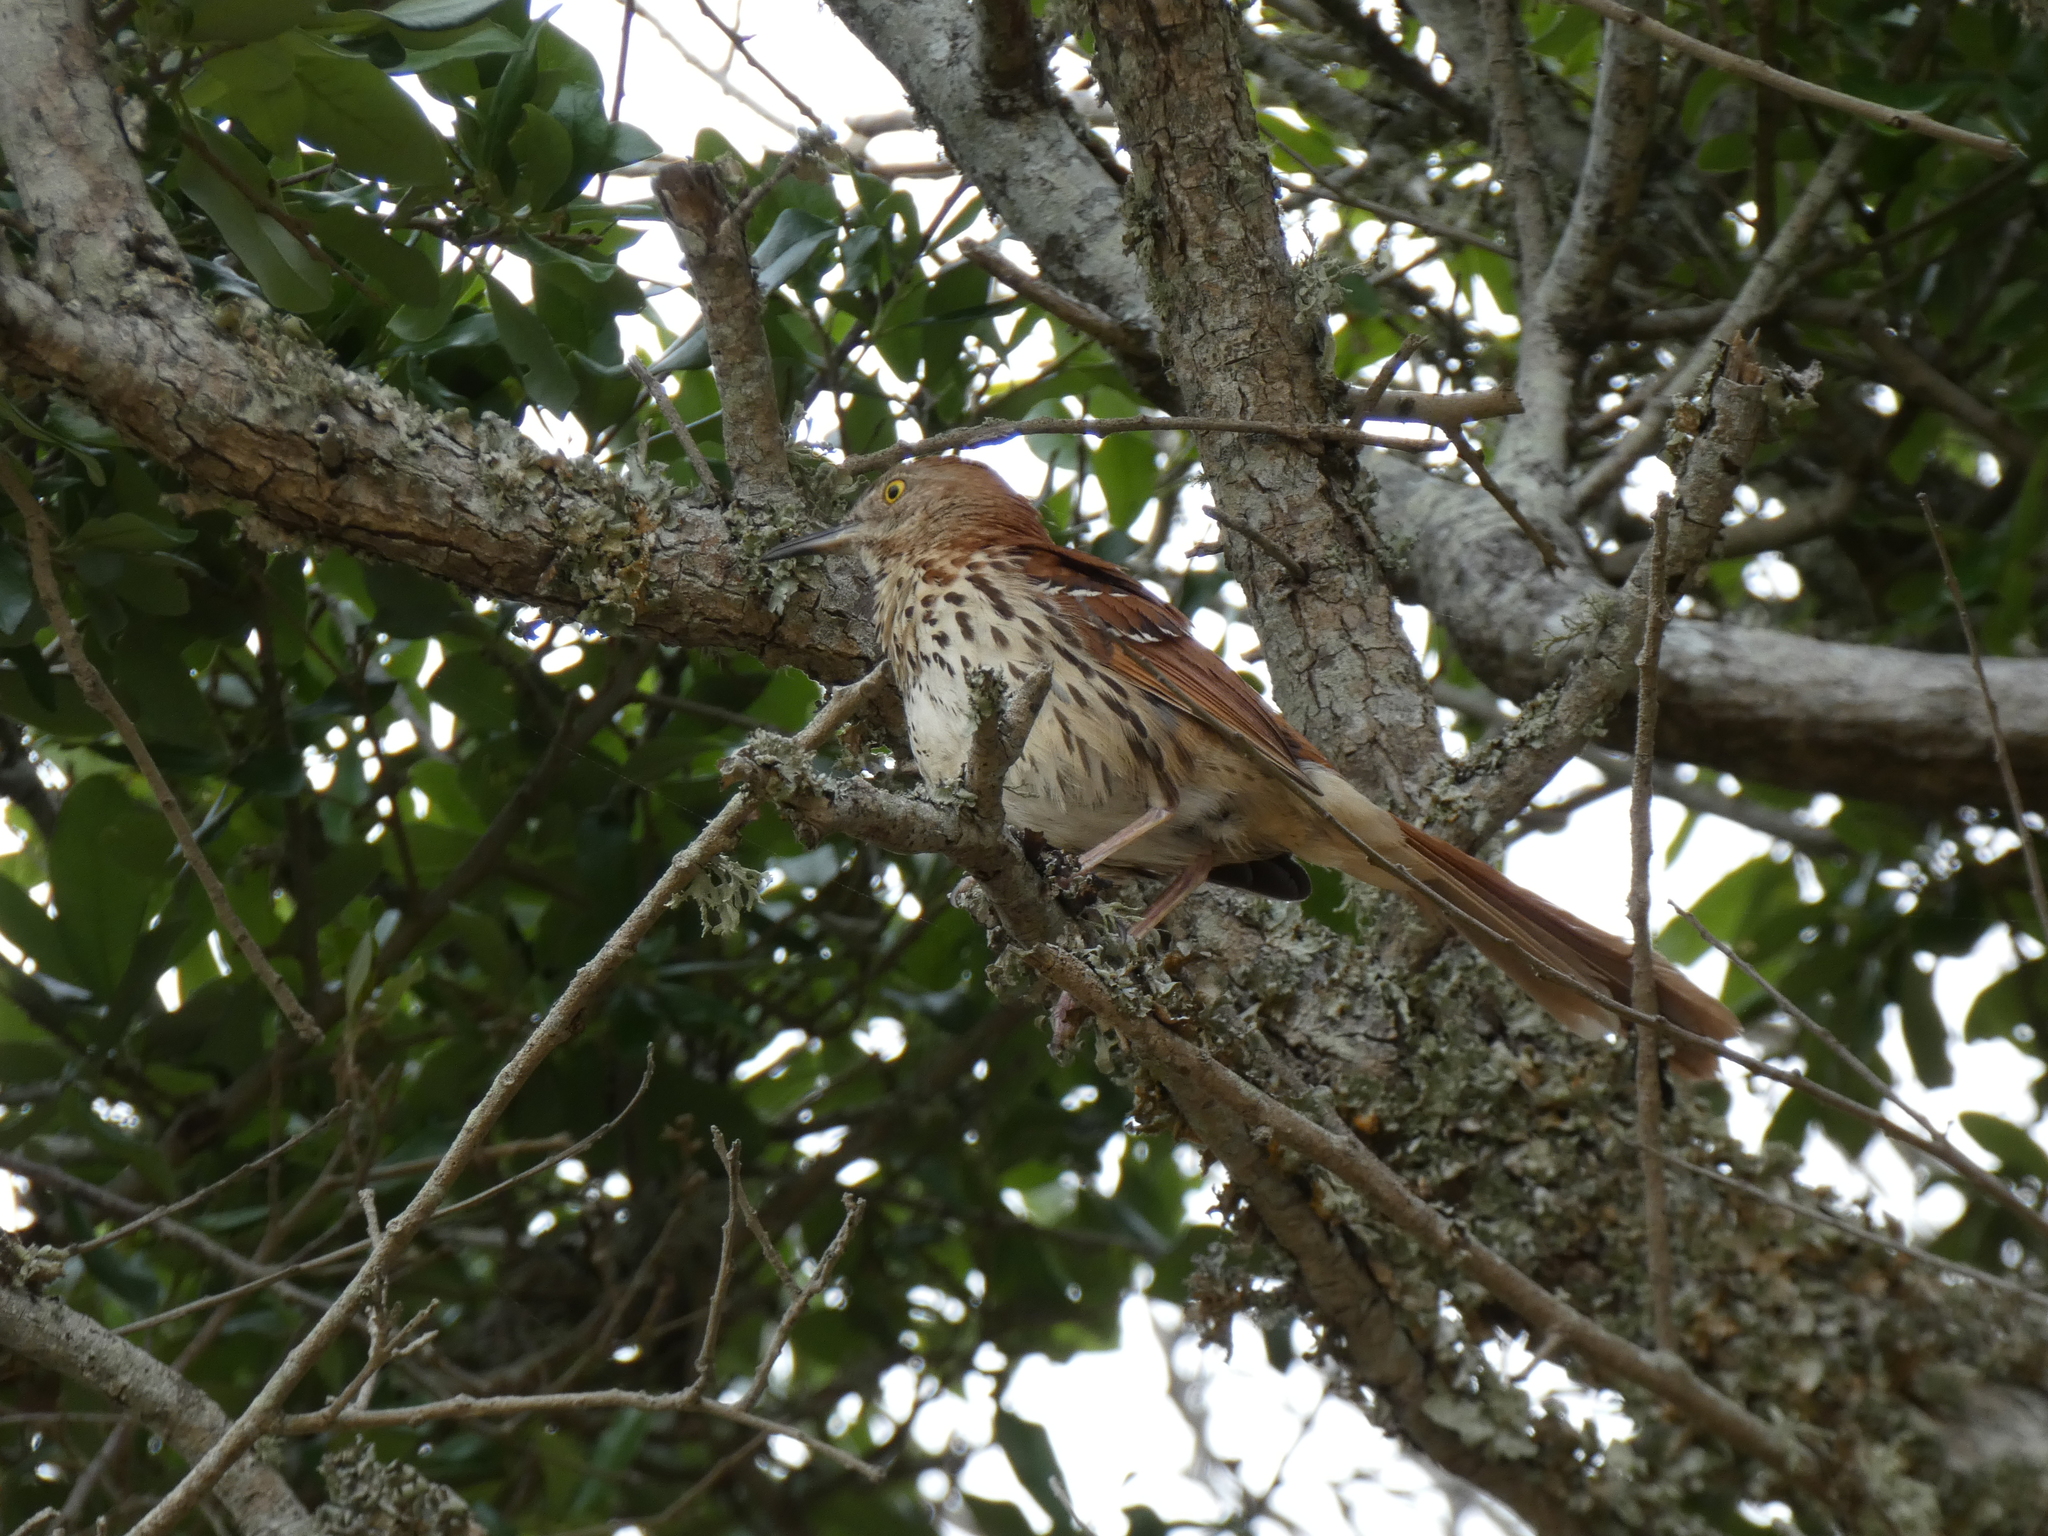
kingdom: Animalia
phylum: Chordata
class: Aves
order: Passeriformes
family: Mimidae
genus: Toxostoma
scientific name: Toxostoma rufum
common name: Brown thrasher
